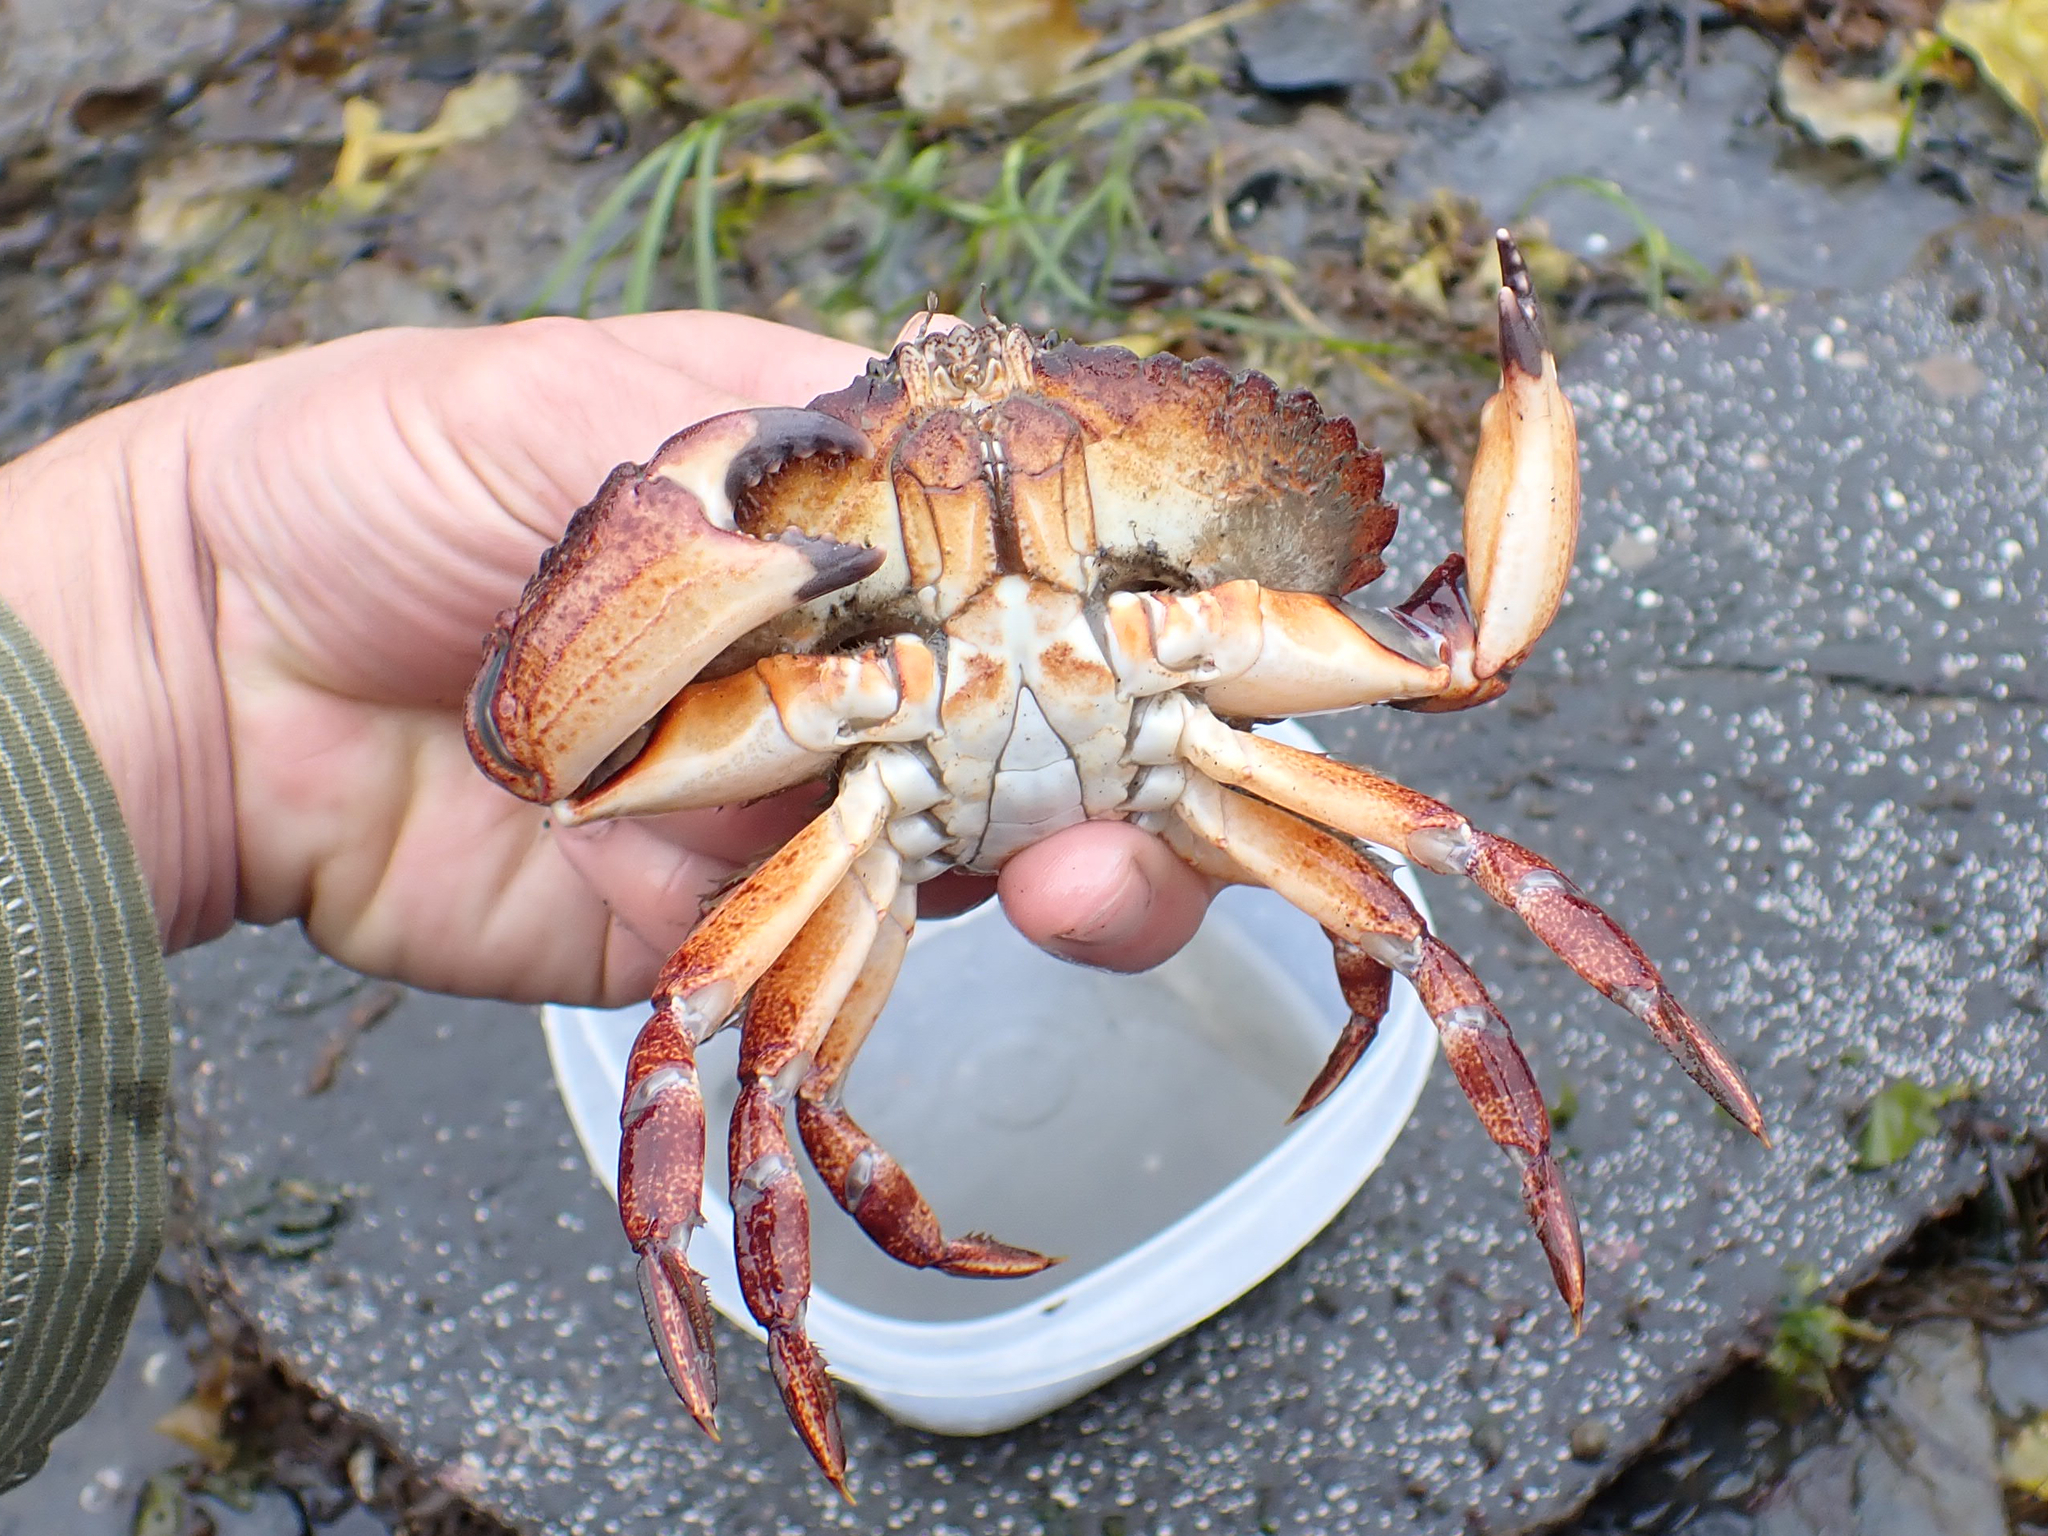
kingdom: Animalia
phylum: Arthropoda
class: Malacostraca
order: Decapoda
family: Cancridae
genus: Cancer
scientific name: Cancer productus
